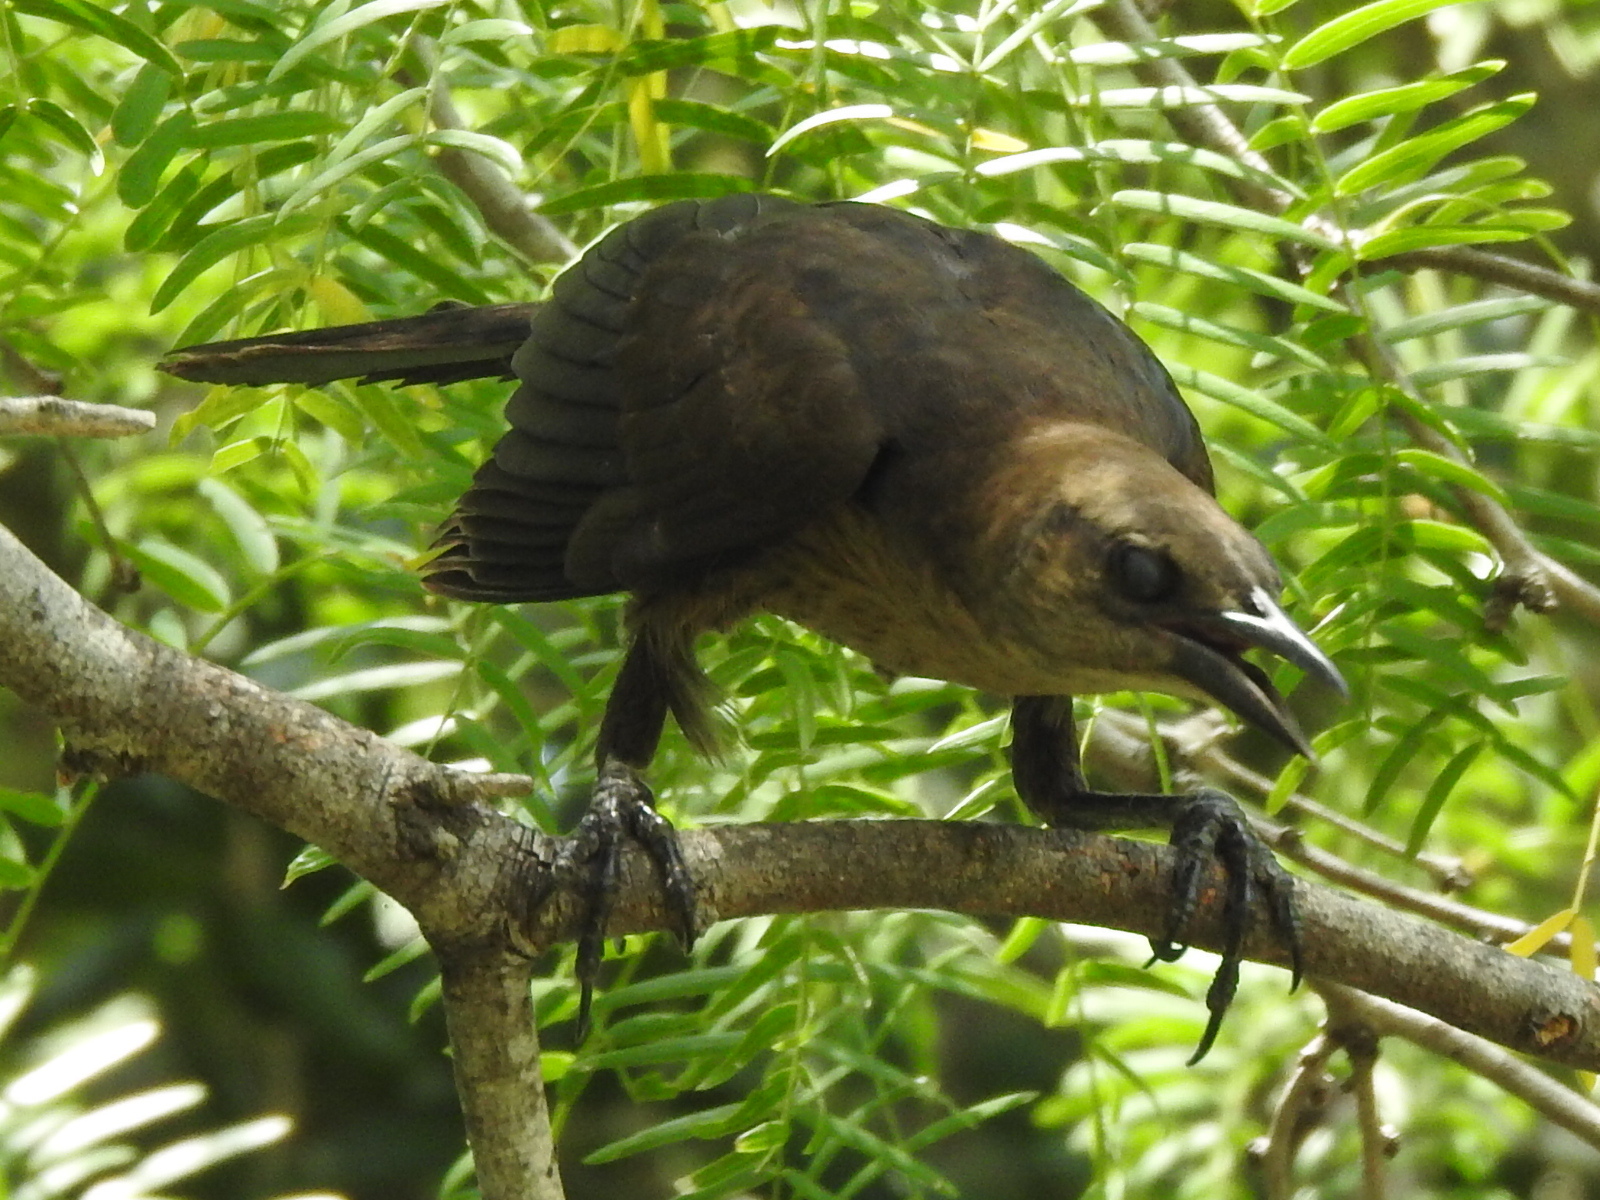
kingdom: Animalia
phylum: Chordata
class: Aves
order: Passeriformes
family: Icteridae
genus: Quiscalus
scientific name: Quiscalus mexicanus
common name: Great-tailed grackle
